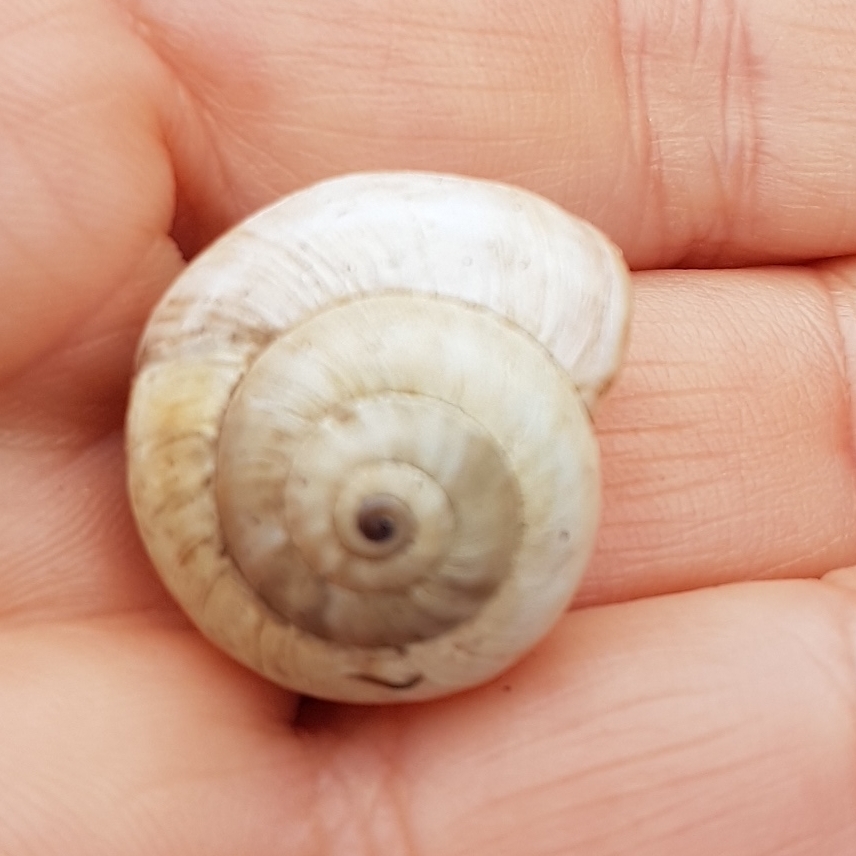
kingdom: Animalia
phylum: Mollusca
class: Gastropoda
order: Stylommatophora
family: Helicidae
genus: Theba
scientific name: Theba pisana
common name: White snail
